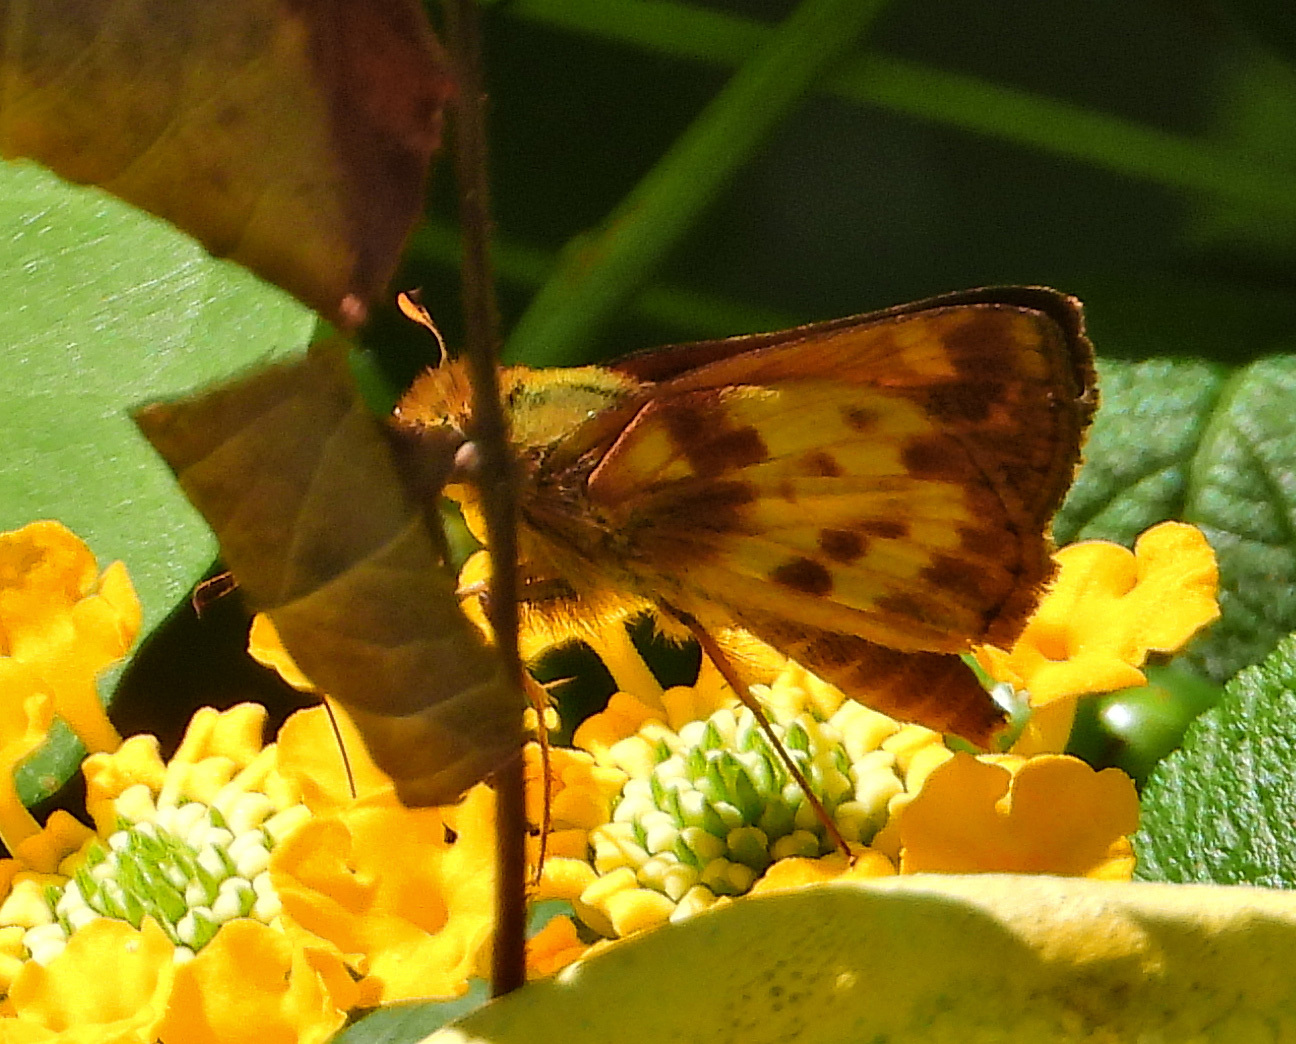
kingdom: Animalia
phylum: Arthropoda
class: Insecta
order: Lepidoptera
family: Hesperiidae
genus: Lon
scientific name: Lon zabulon
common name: Zabulon skipper
